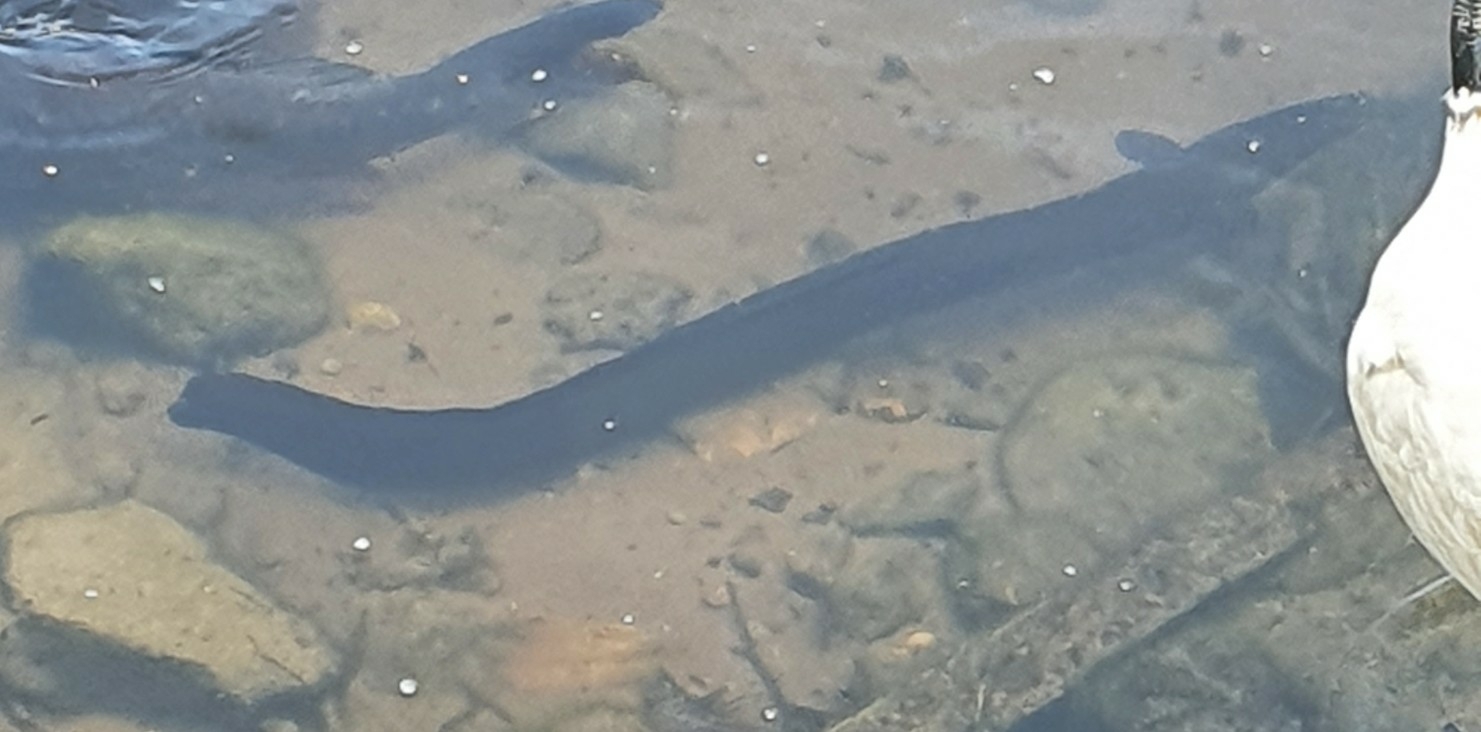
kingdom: Animalia
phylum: Chordata
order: Anguilliformes
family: Anguillidae
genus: Anguilla
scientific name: Anguilla reinhardtii
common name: Longfin eel
